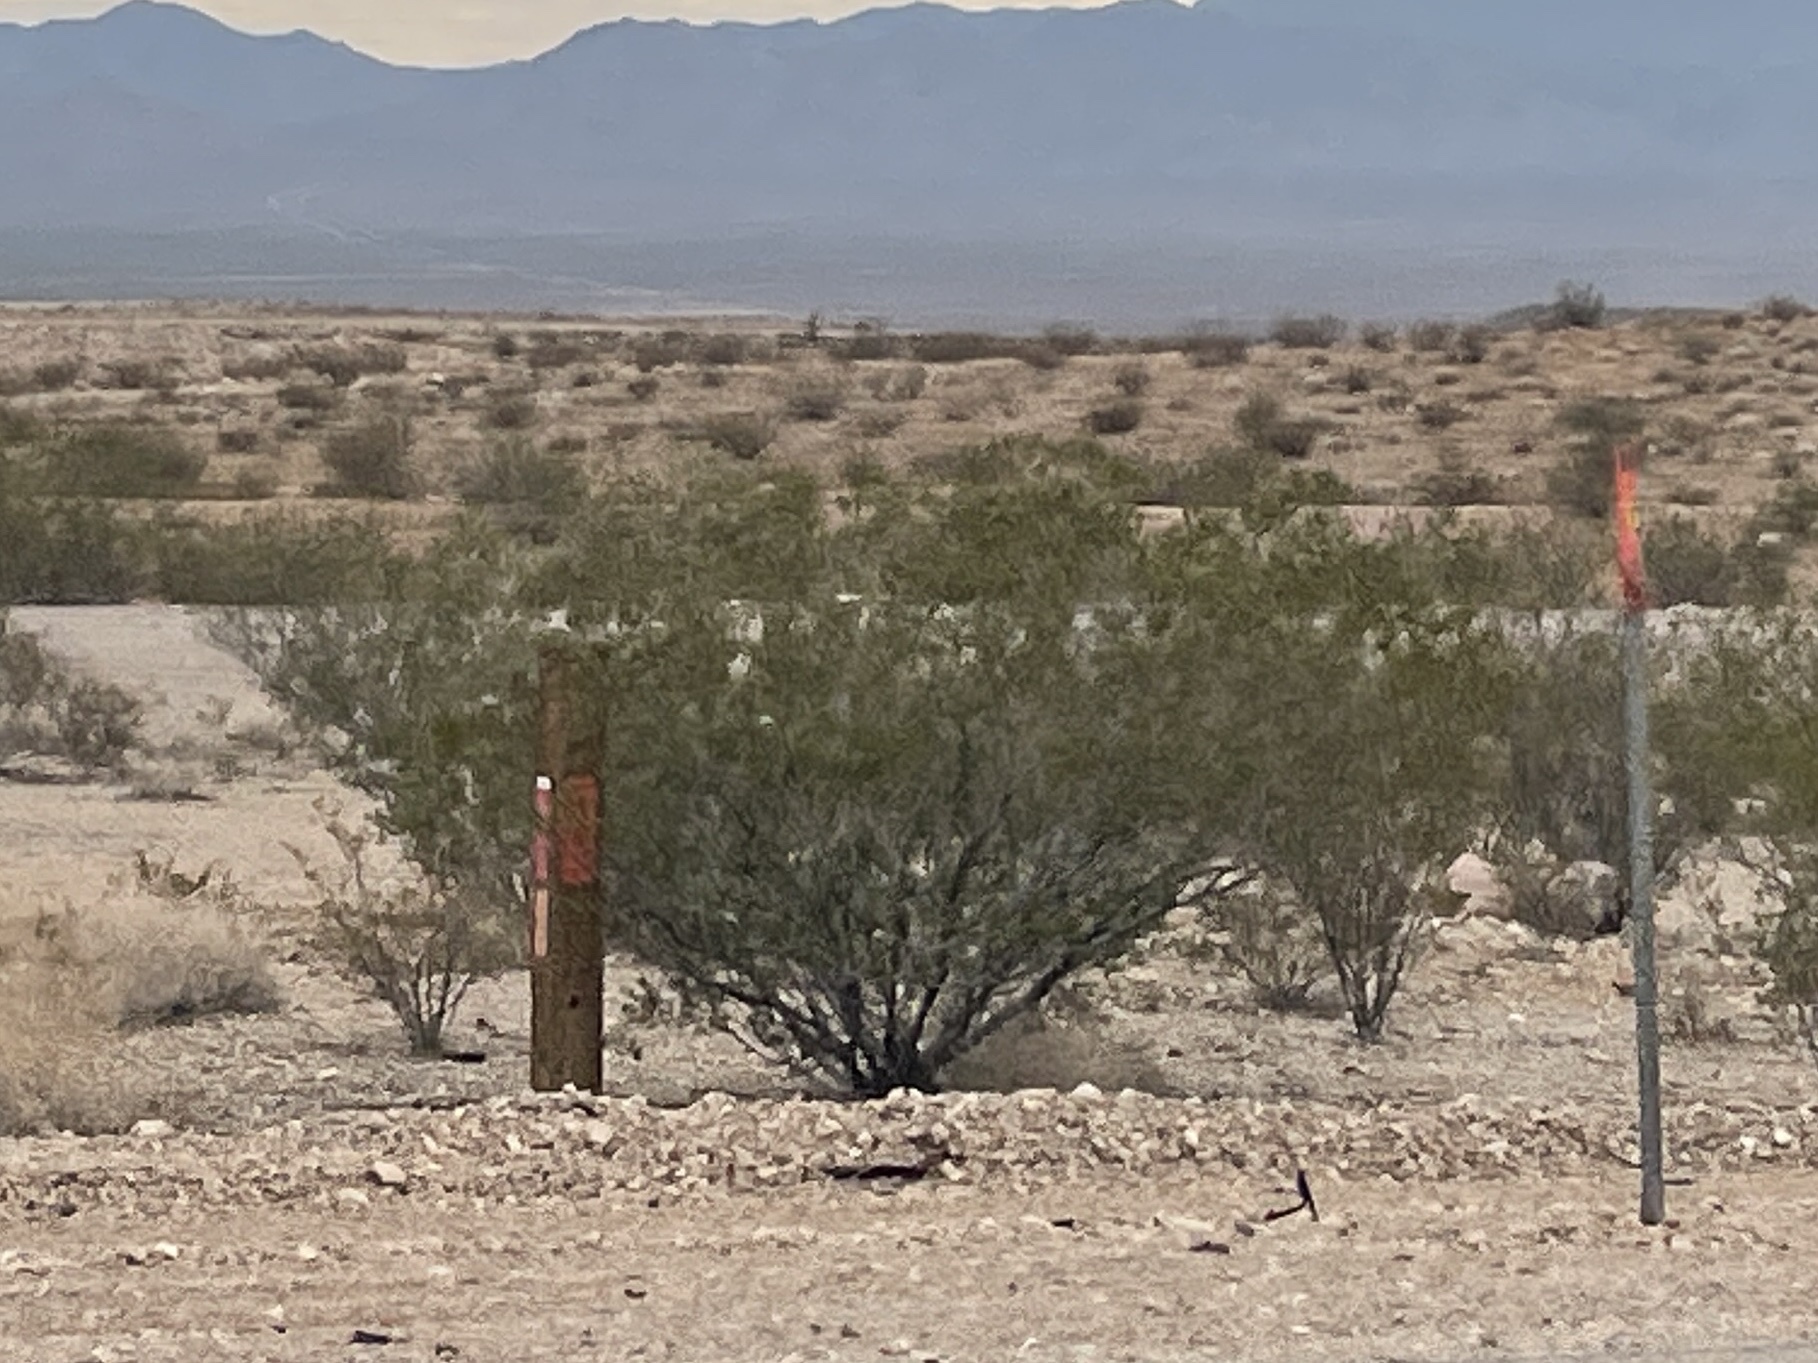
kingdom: Plantae
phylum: Tracheophyta
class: Magnoliopsida
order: Zygophyllales
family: Zygophyllaceae
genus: Larrea
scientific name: Larrea tridentata
